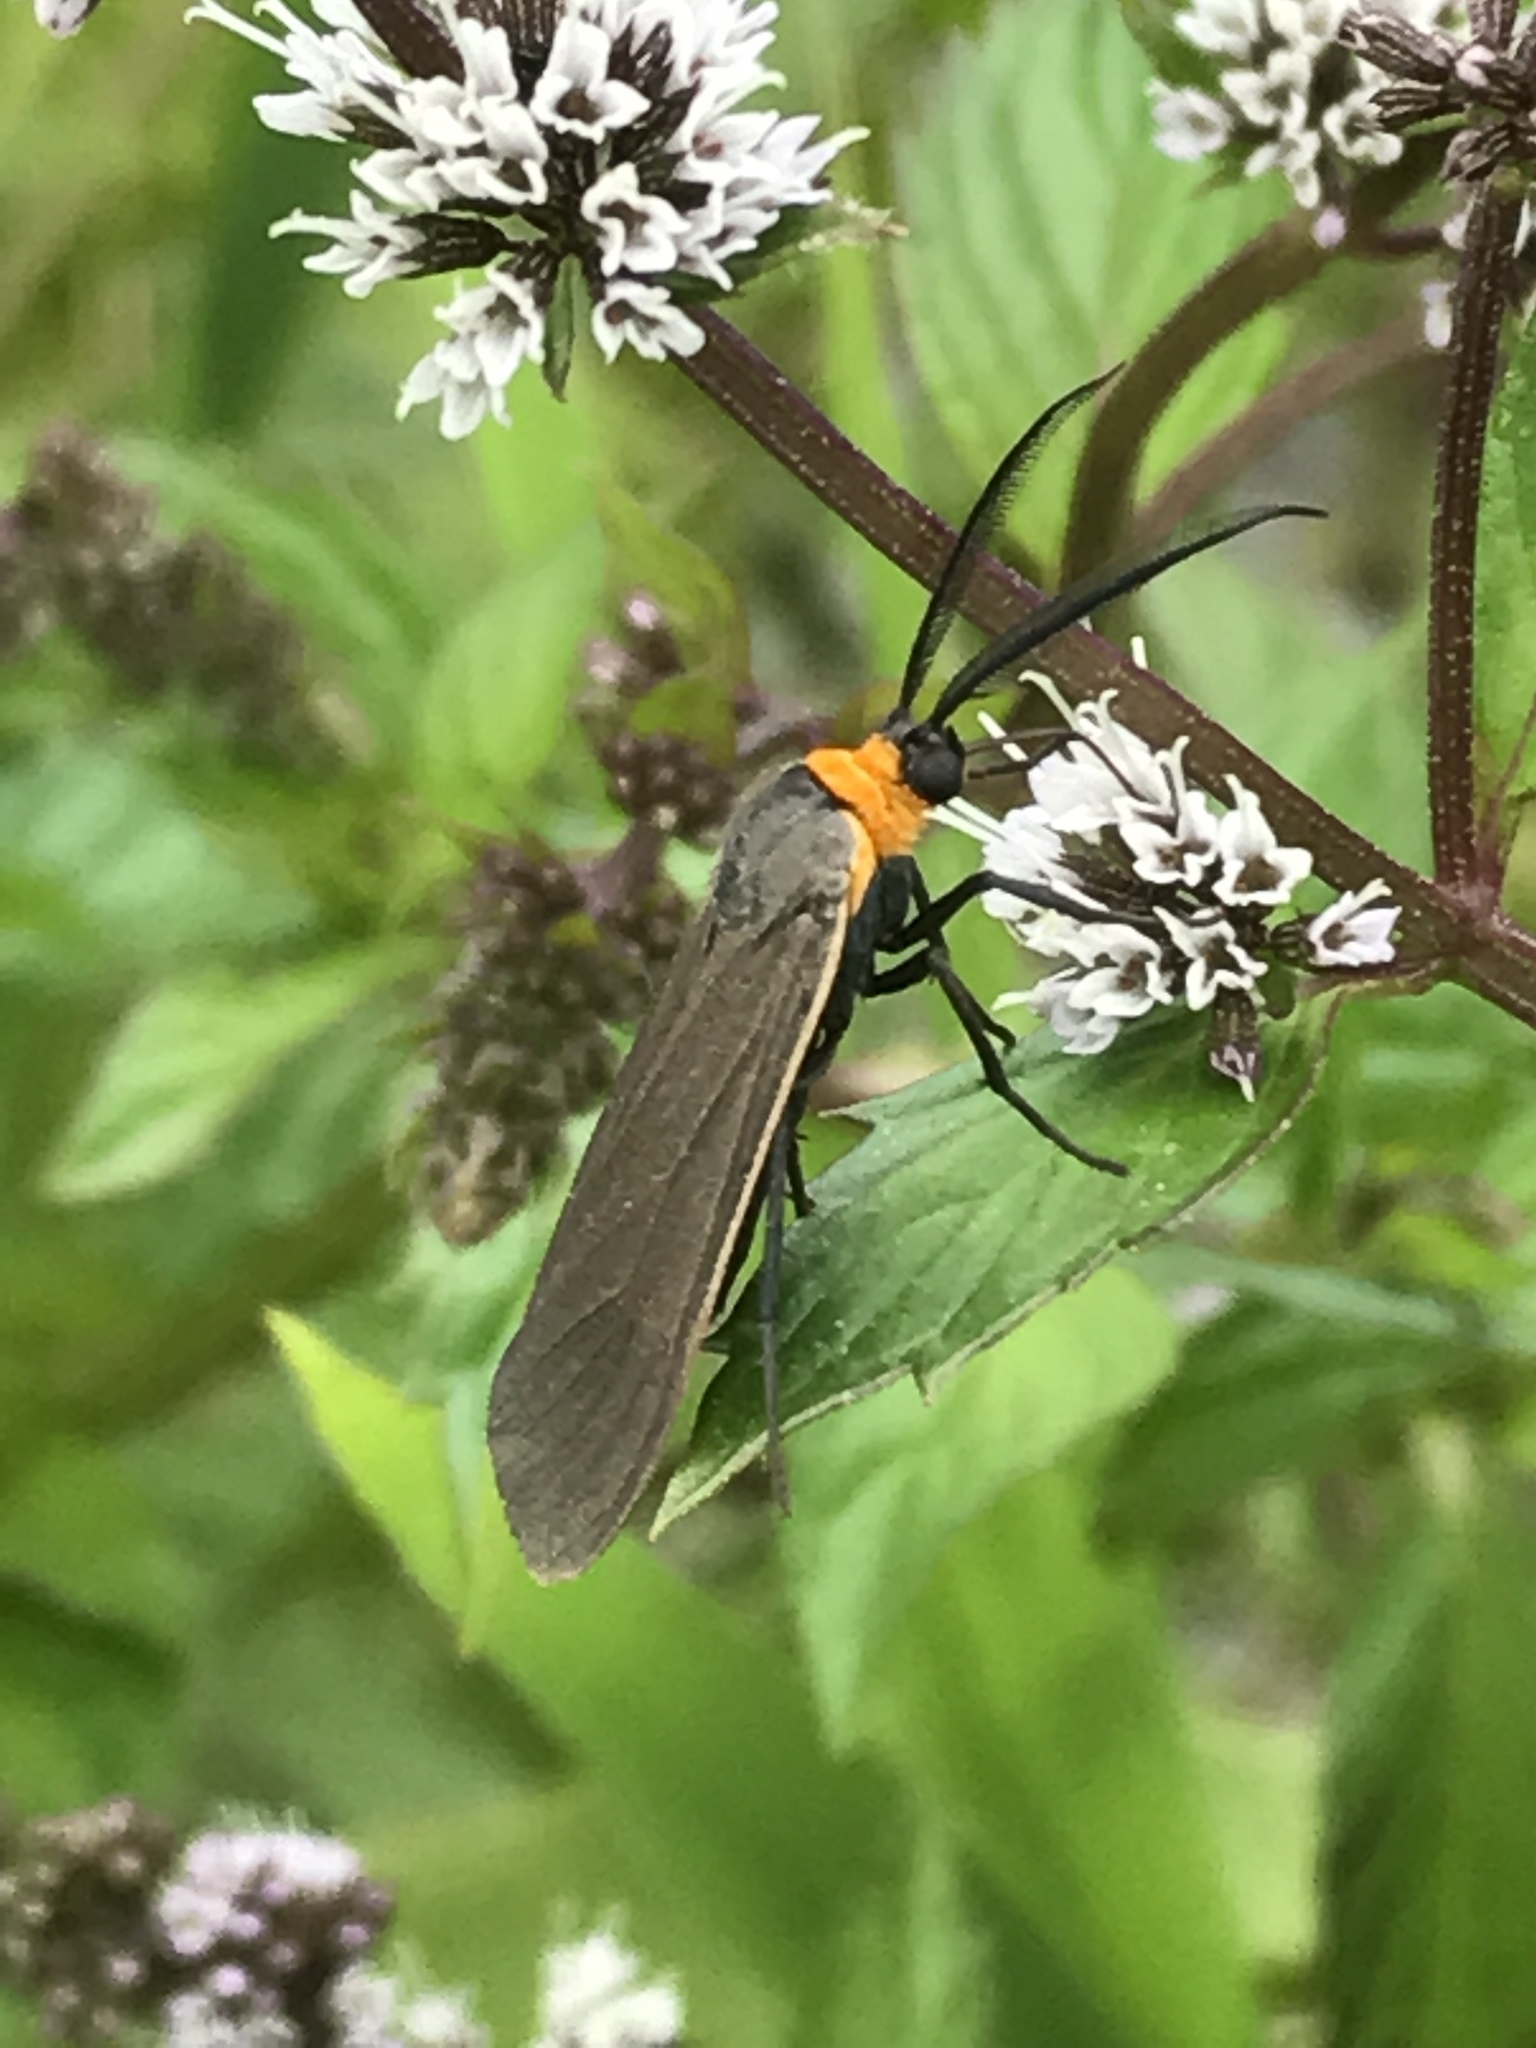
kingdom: Animalia
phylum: Arthropoda
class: Insecta
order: Lepidoptera
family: Erebidae
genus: Cisseps
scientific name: Cisseps fulvicollis
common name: Yellow-collared scape moth
